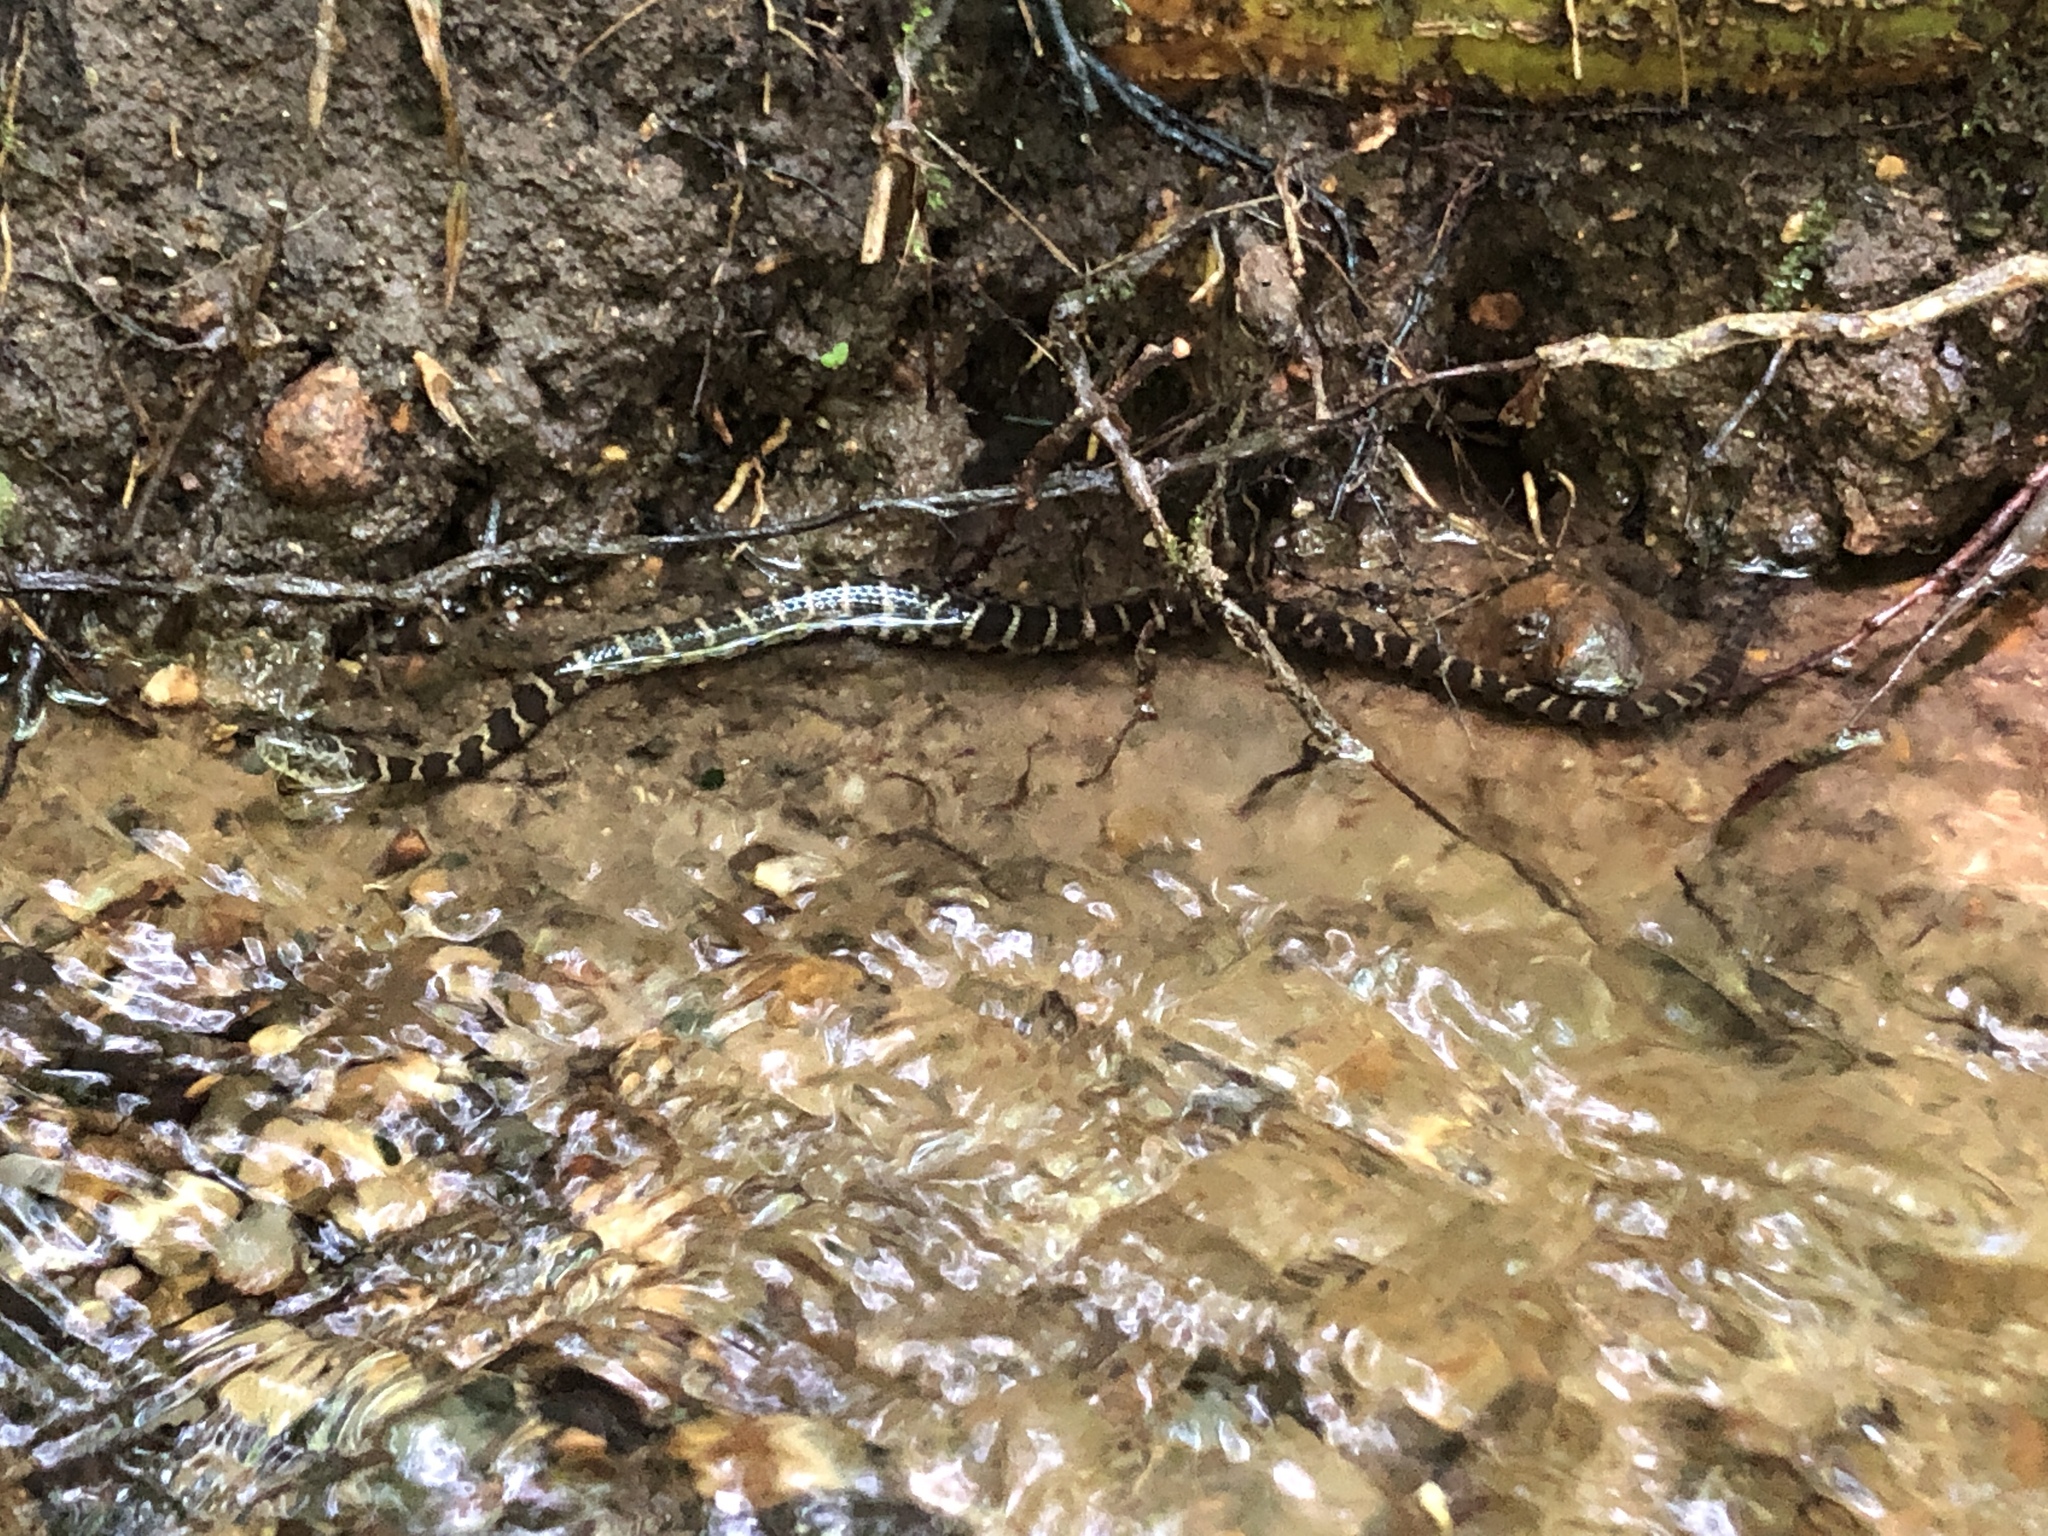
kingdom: Animalia
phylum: Chordata
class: Squamata
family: Colubridae
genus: Nerodia
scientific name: Nerodia sipedon
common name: Northern water snake
